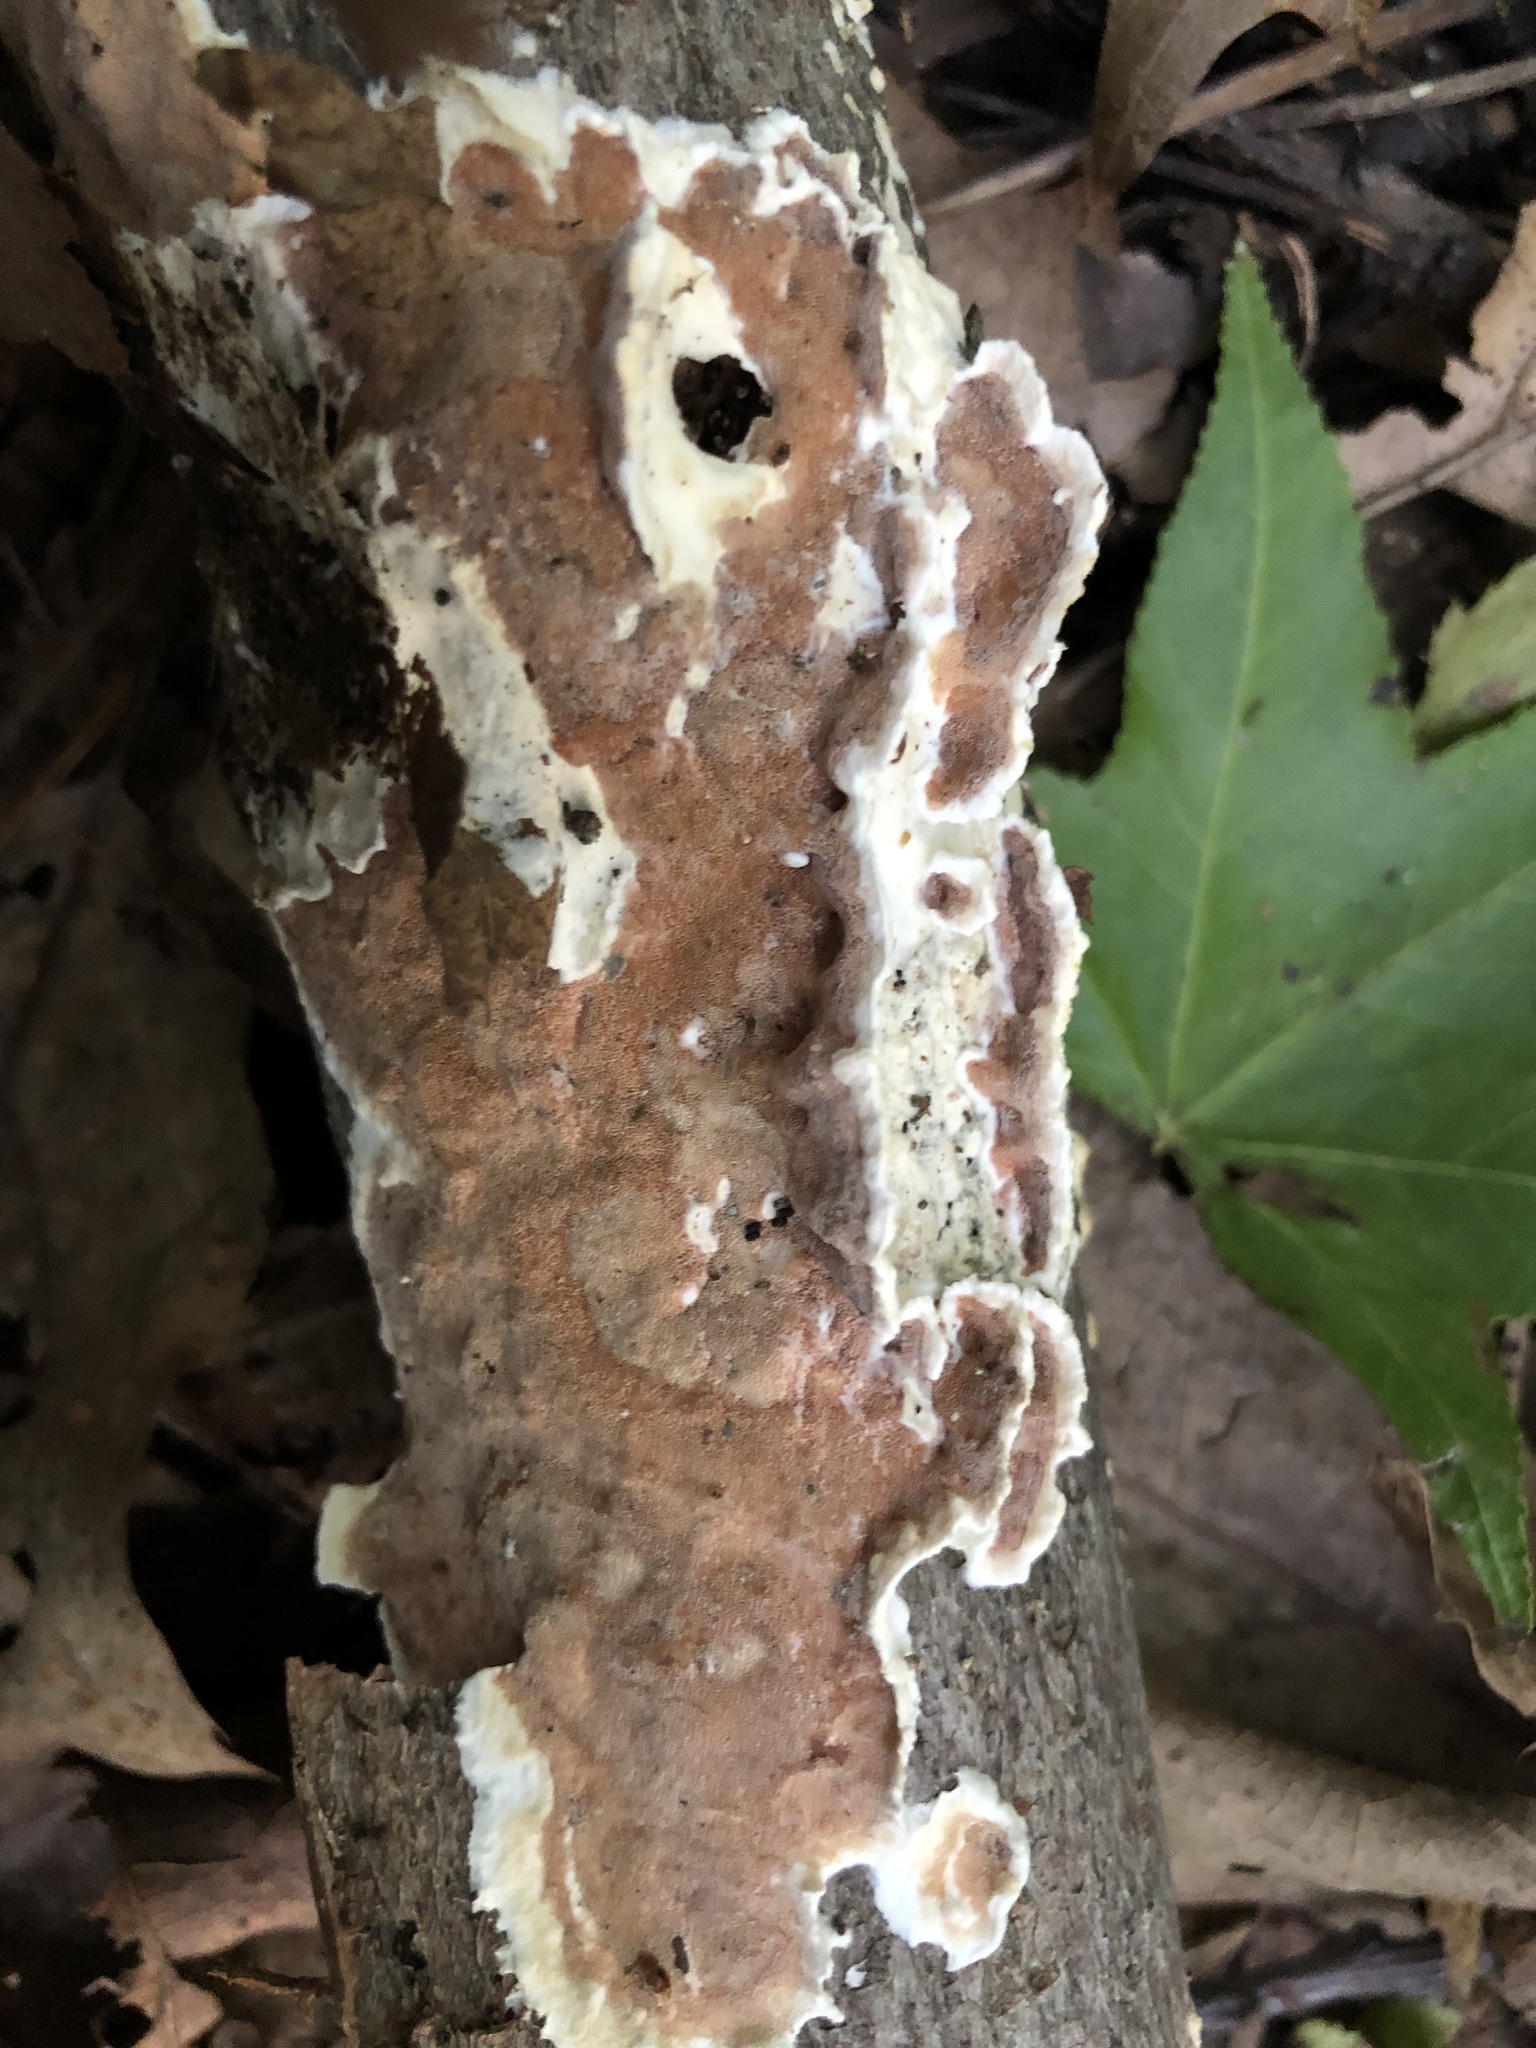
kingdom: Fungi
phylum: Basidiomycota
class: Agaricomycetes
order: Polyporales
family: Irpicaceae
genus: Vitreoporus
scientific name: Vitreoporus dichrous
